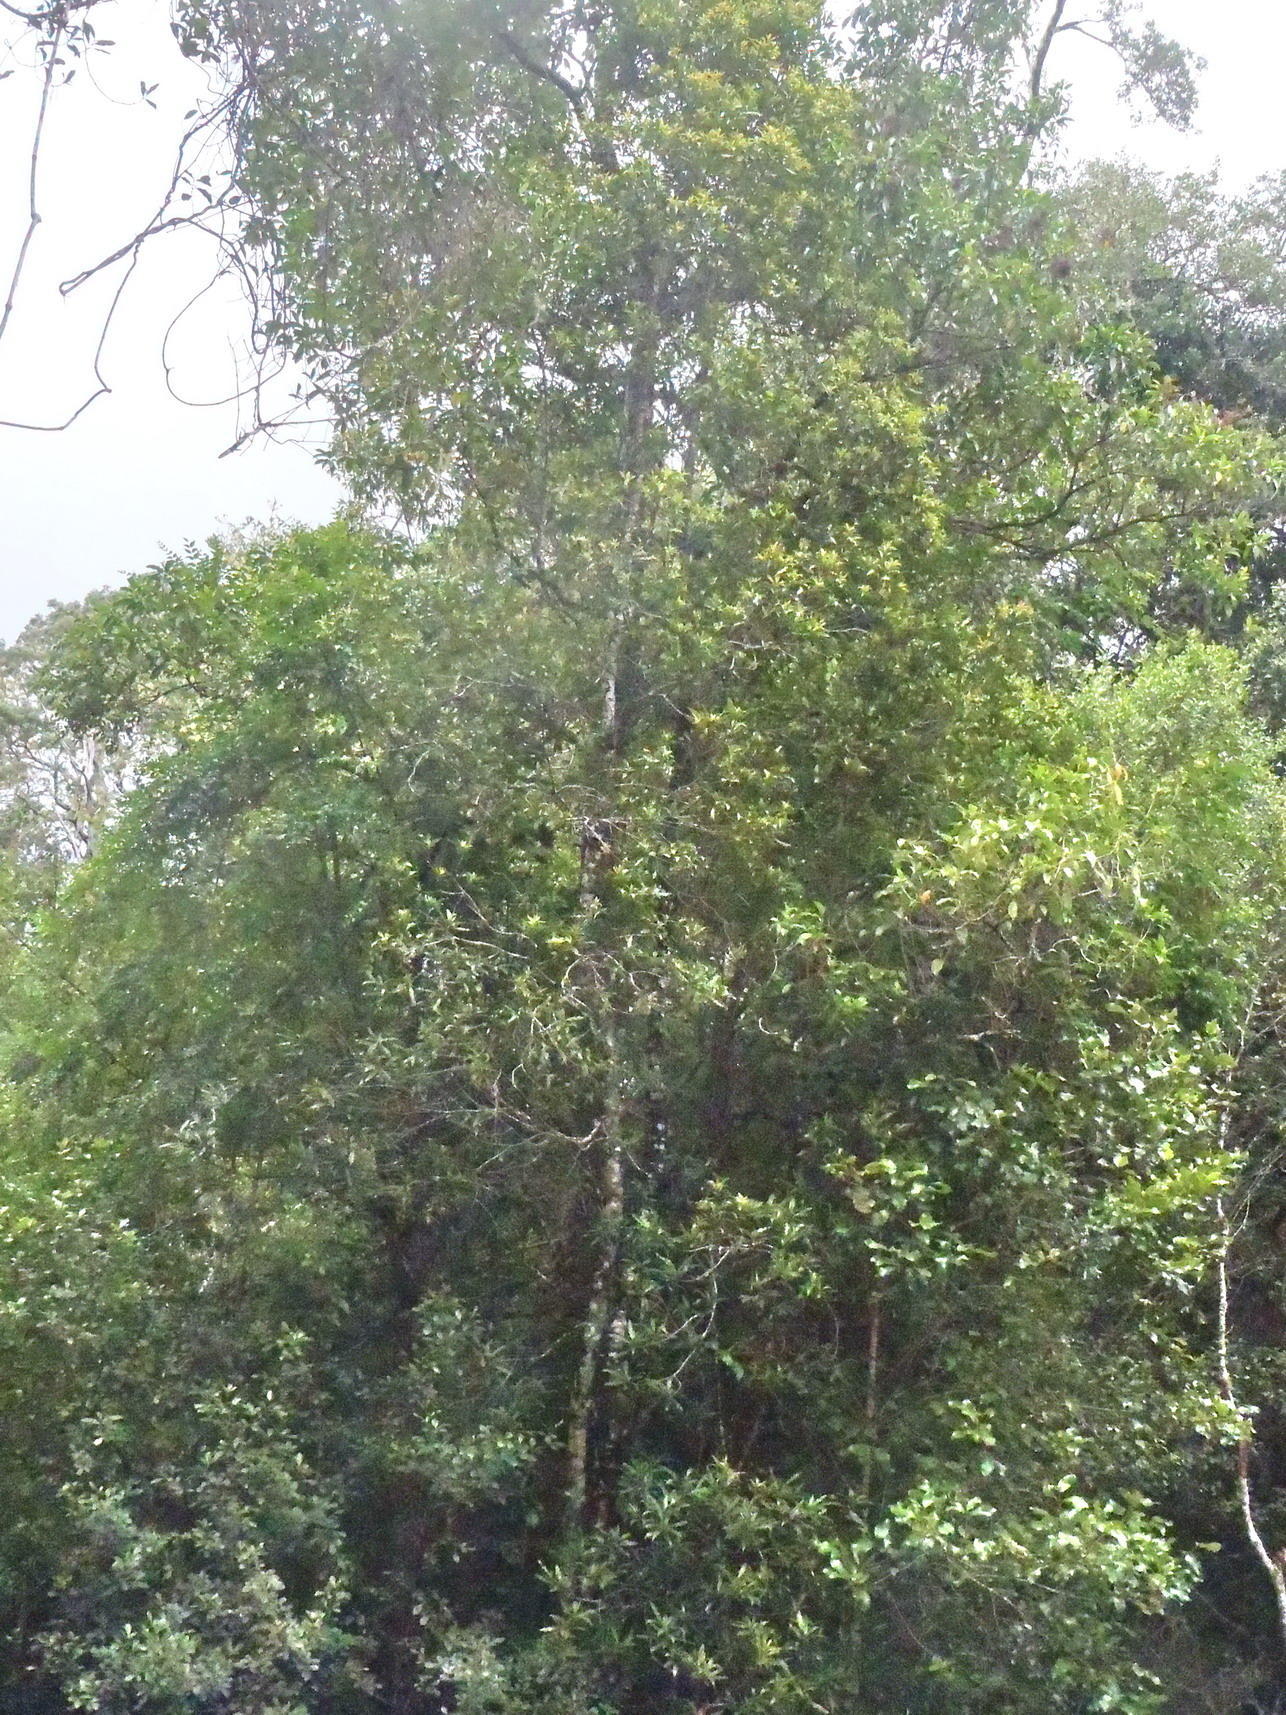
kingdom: Plantae
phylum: Tracheophyta
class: Magnoliopsida
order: Proteales
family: Proteaceae
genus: Faurea
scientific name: Faurea macnaughtonii
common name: Egossa beech
